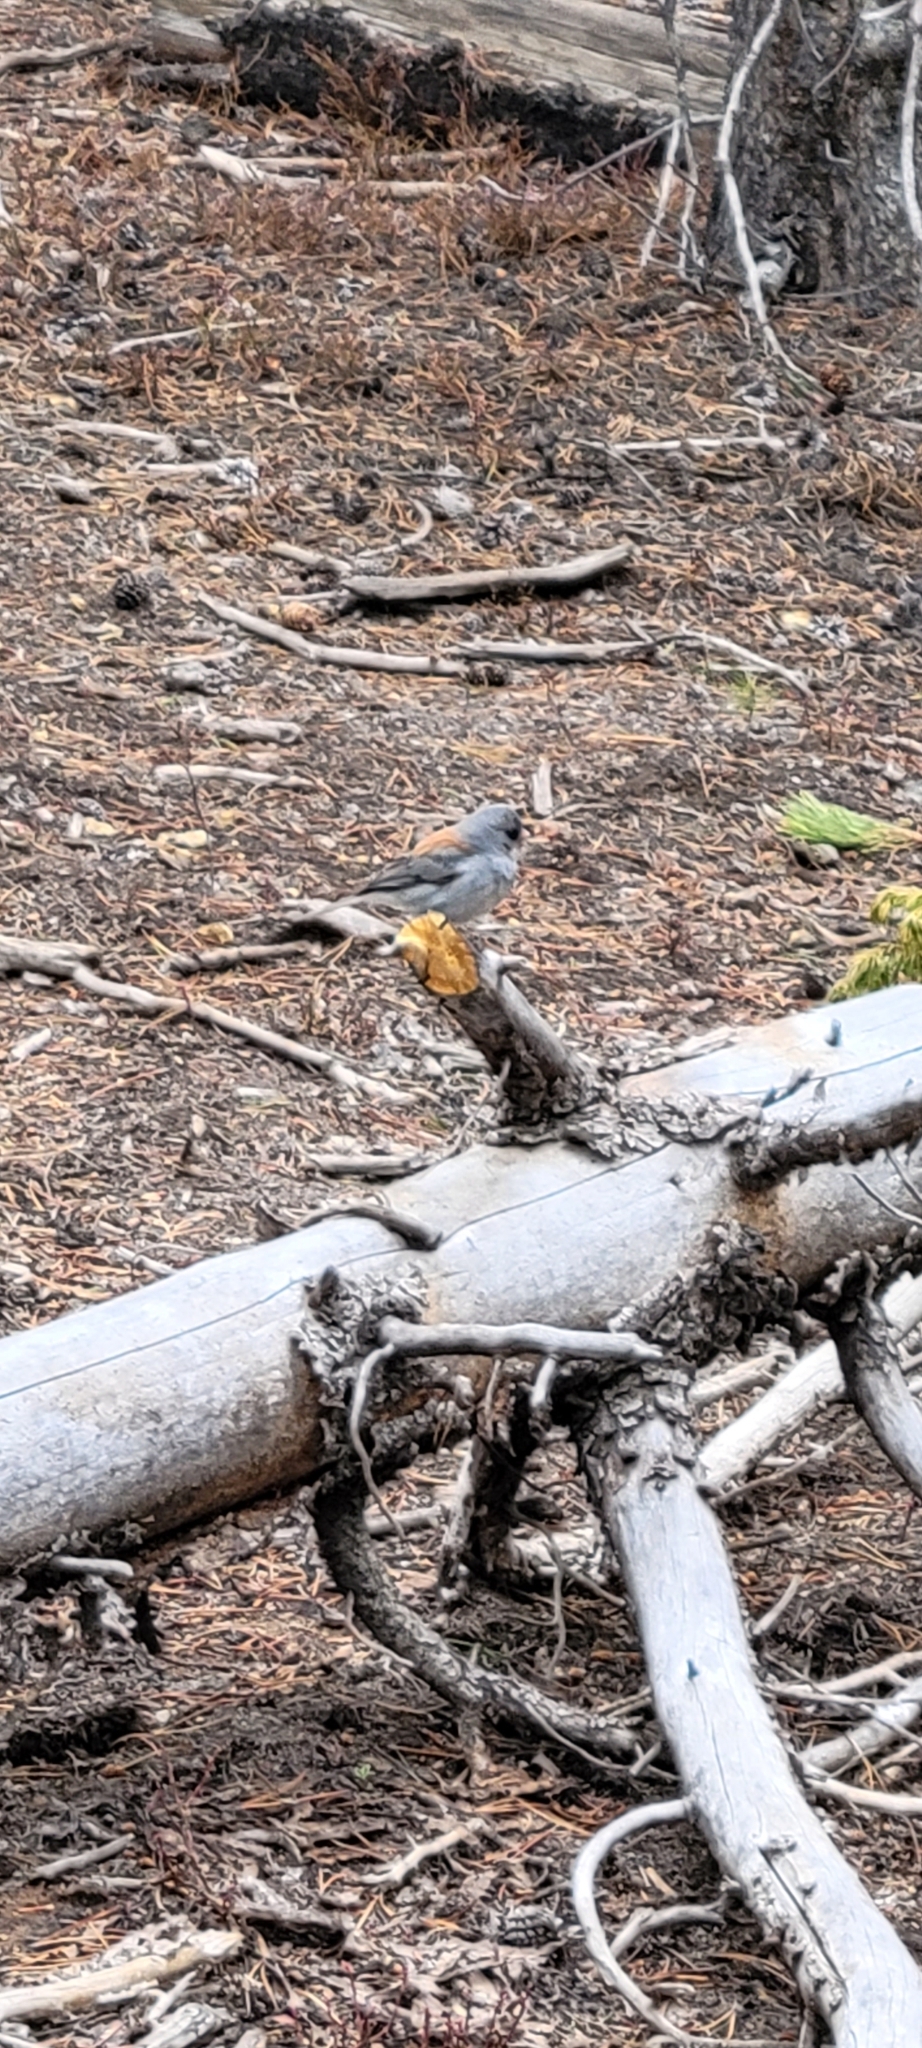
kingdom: Animalia
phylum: Chordata
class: Aves
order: Passeriformes
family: Passerellidae
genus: Junco
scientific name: Junco hyemalis
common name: Dark-eyed junco
